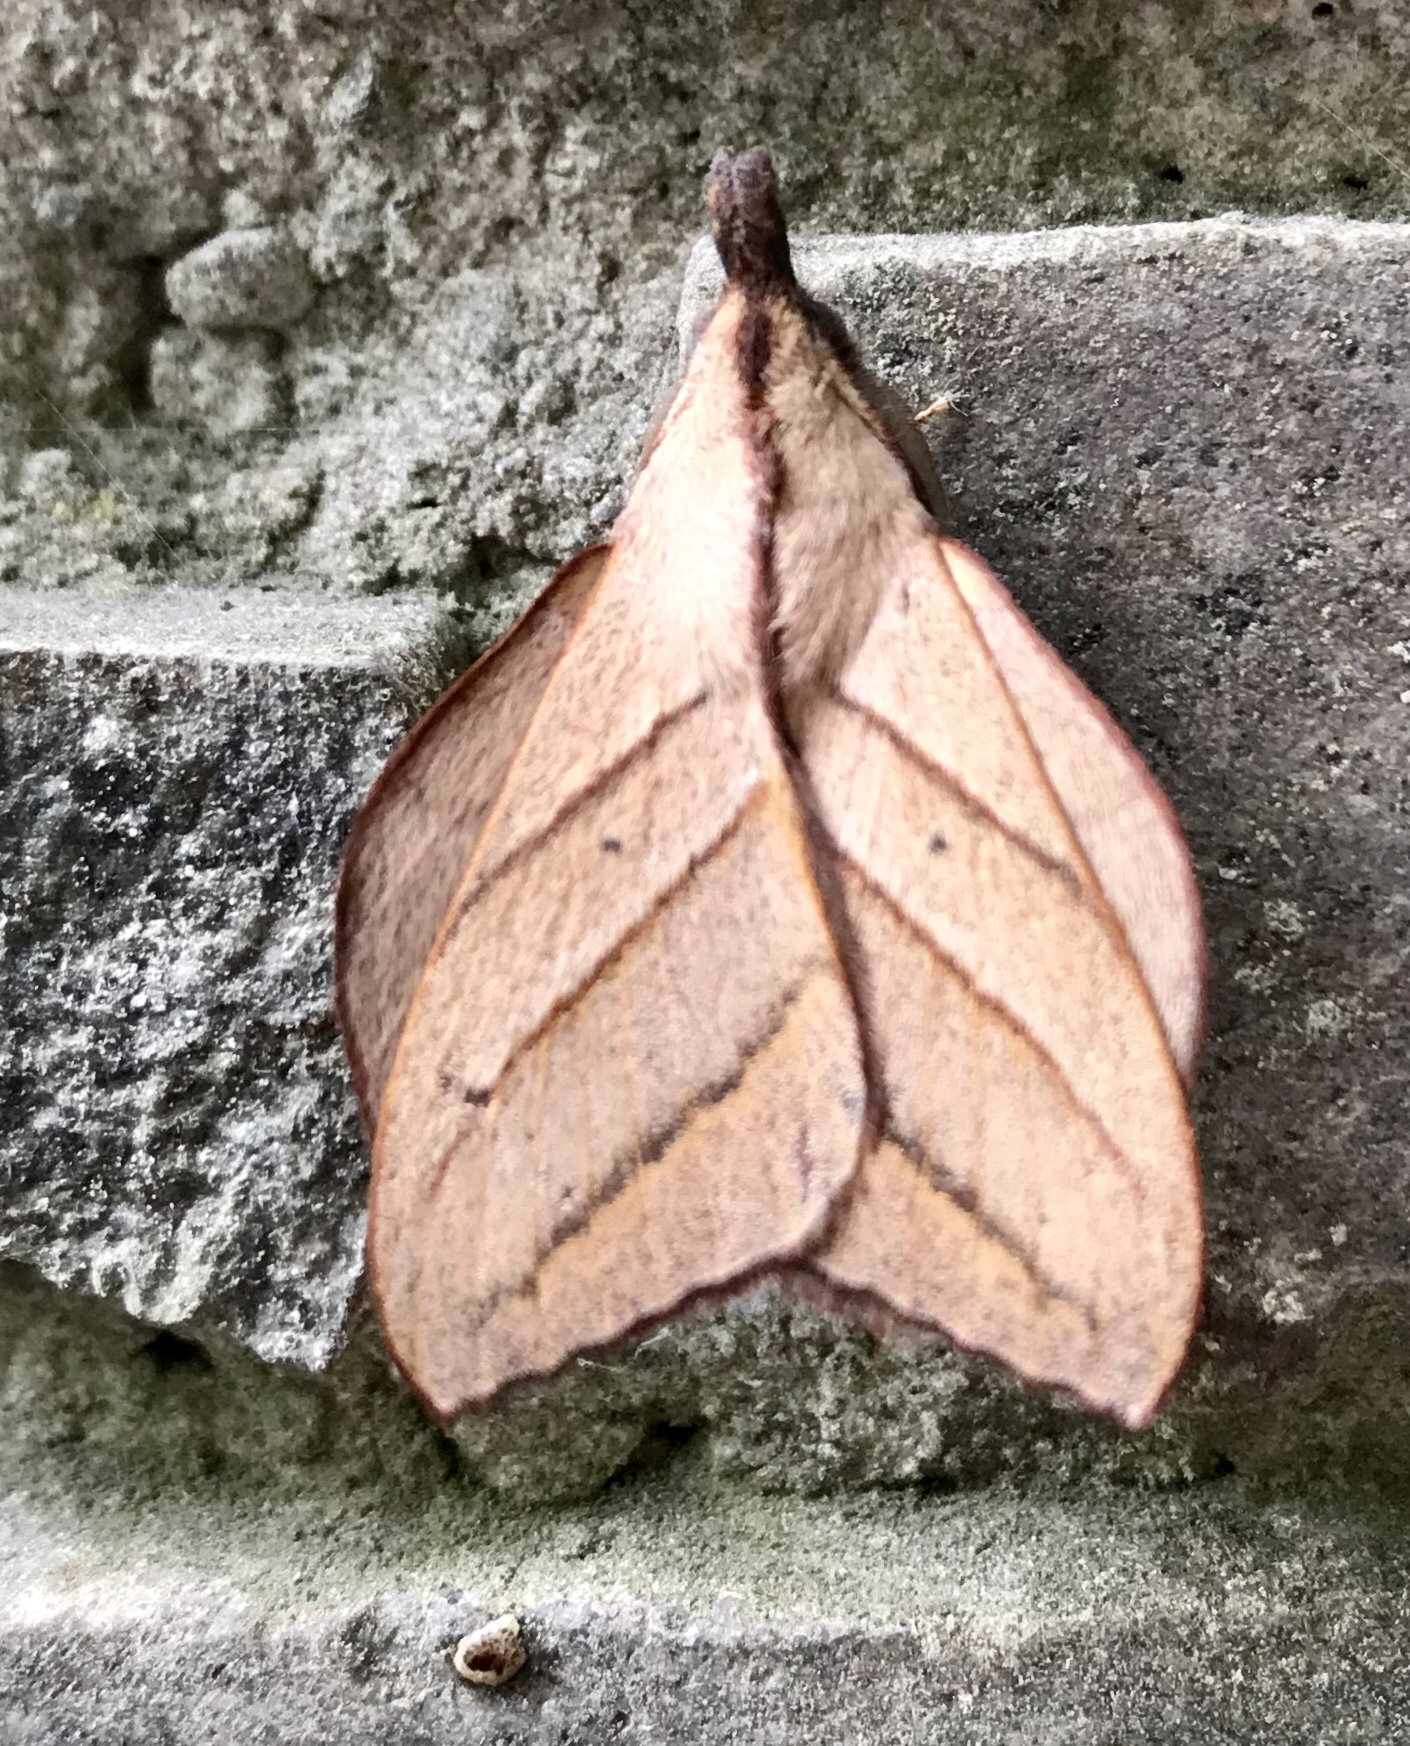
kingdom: Animalia
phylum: Arthropoda
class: Insecta
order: Lepidoptera
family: Lasiocampidae
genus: Arguda
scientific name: Arguda insulindiana
